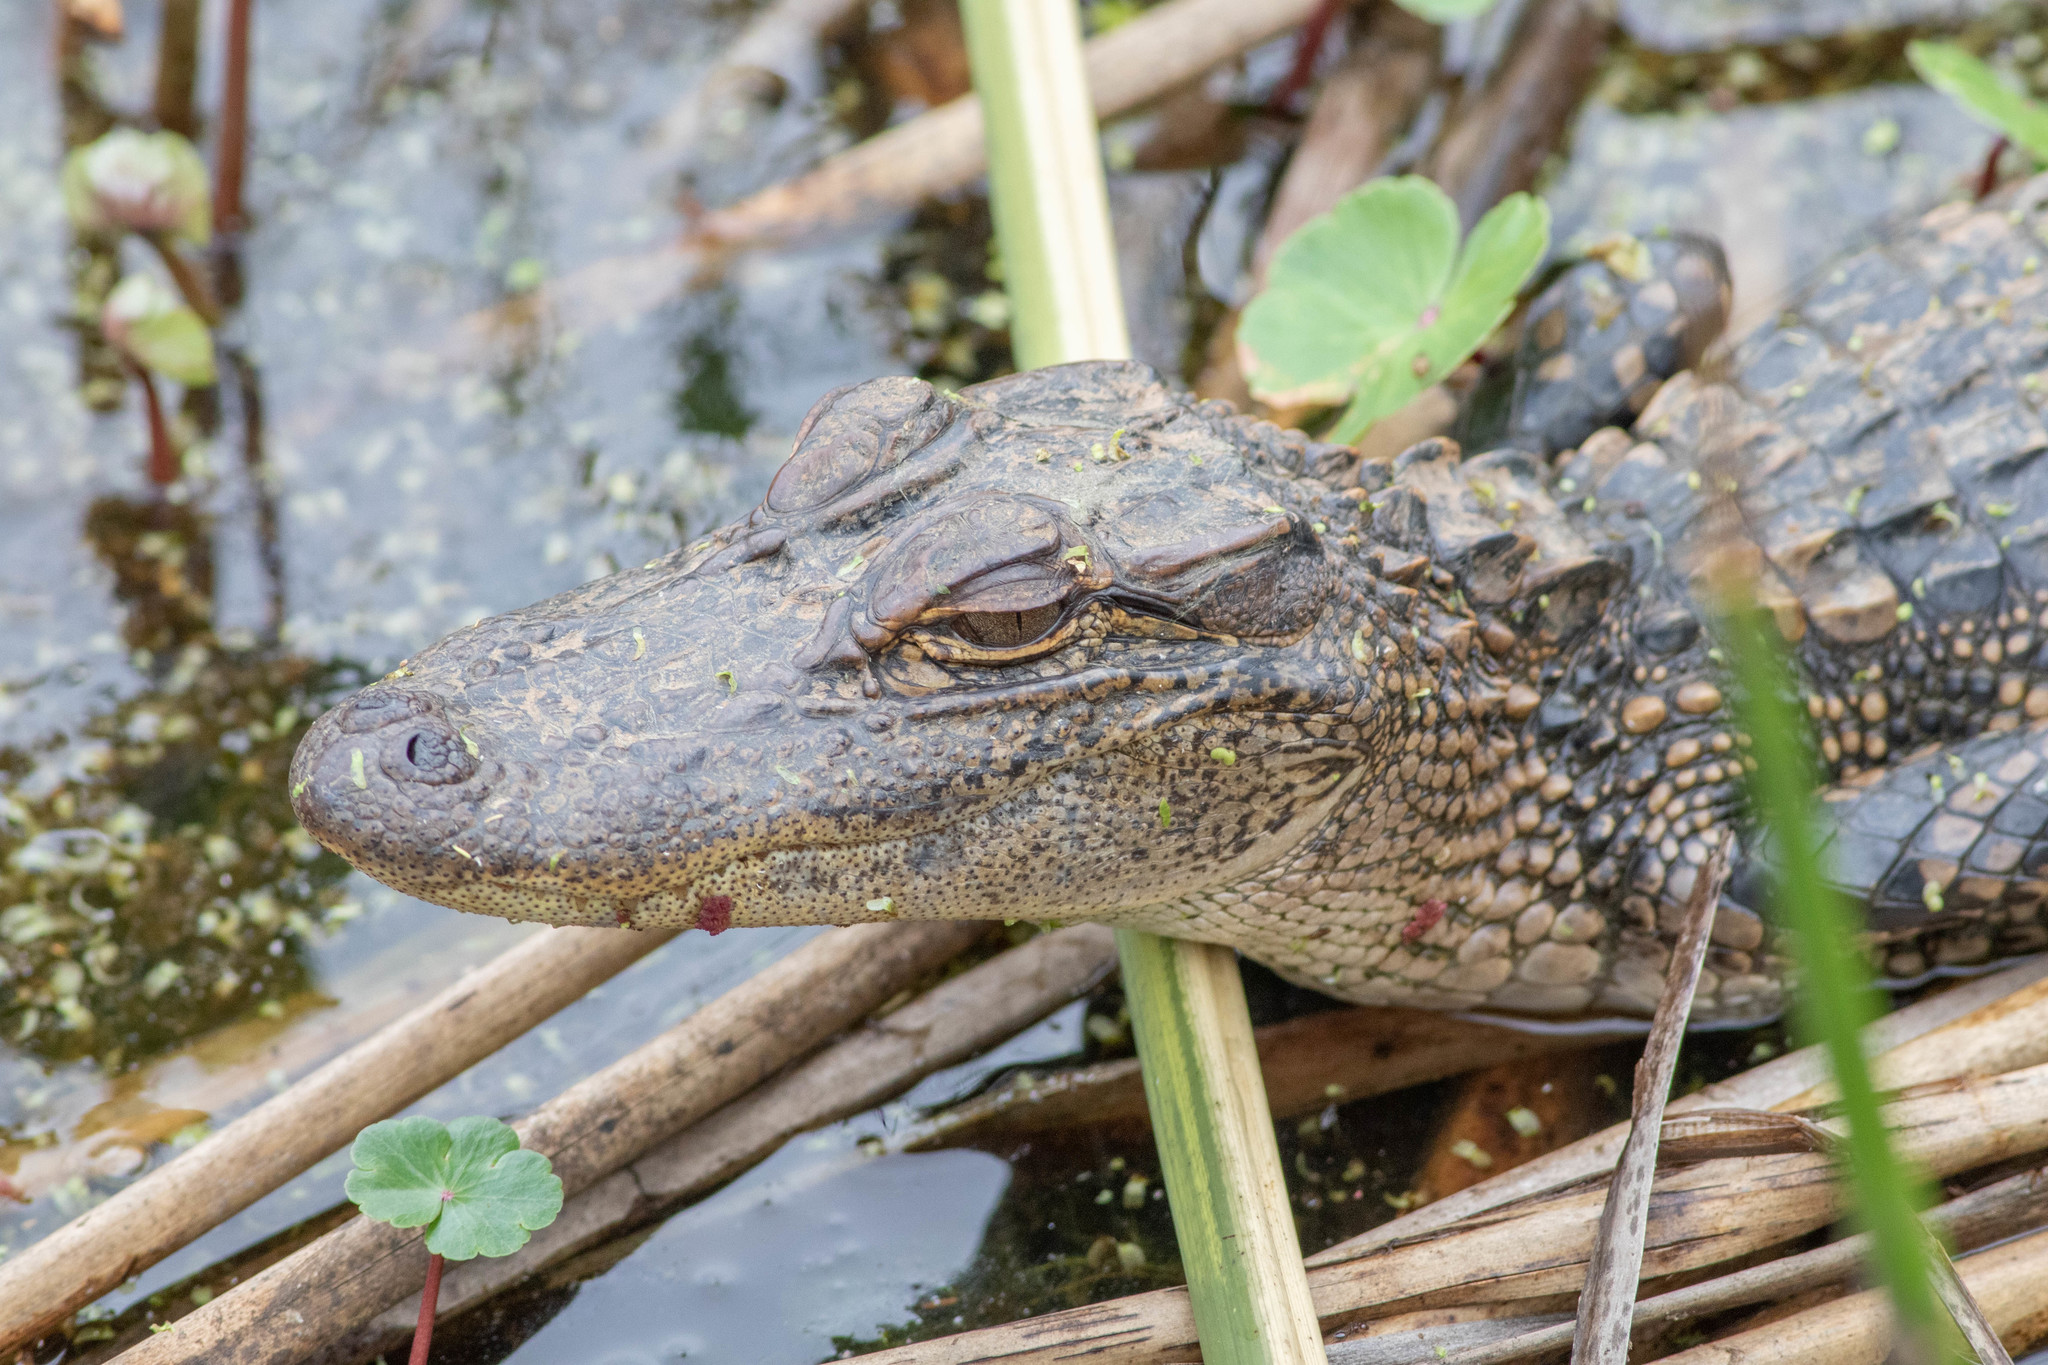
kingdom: Animalia
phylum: Chordata
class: Crocodylia
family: Alligatoridae
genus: Alligator
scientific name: Alligator mississippiensis
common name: American alligator
